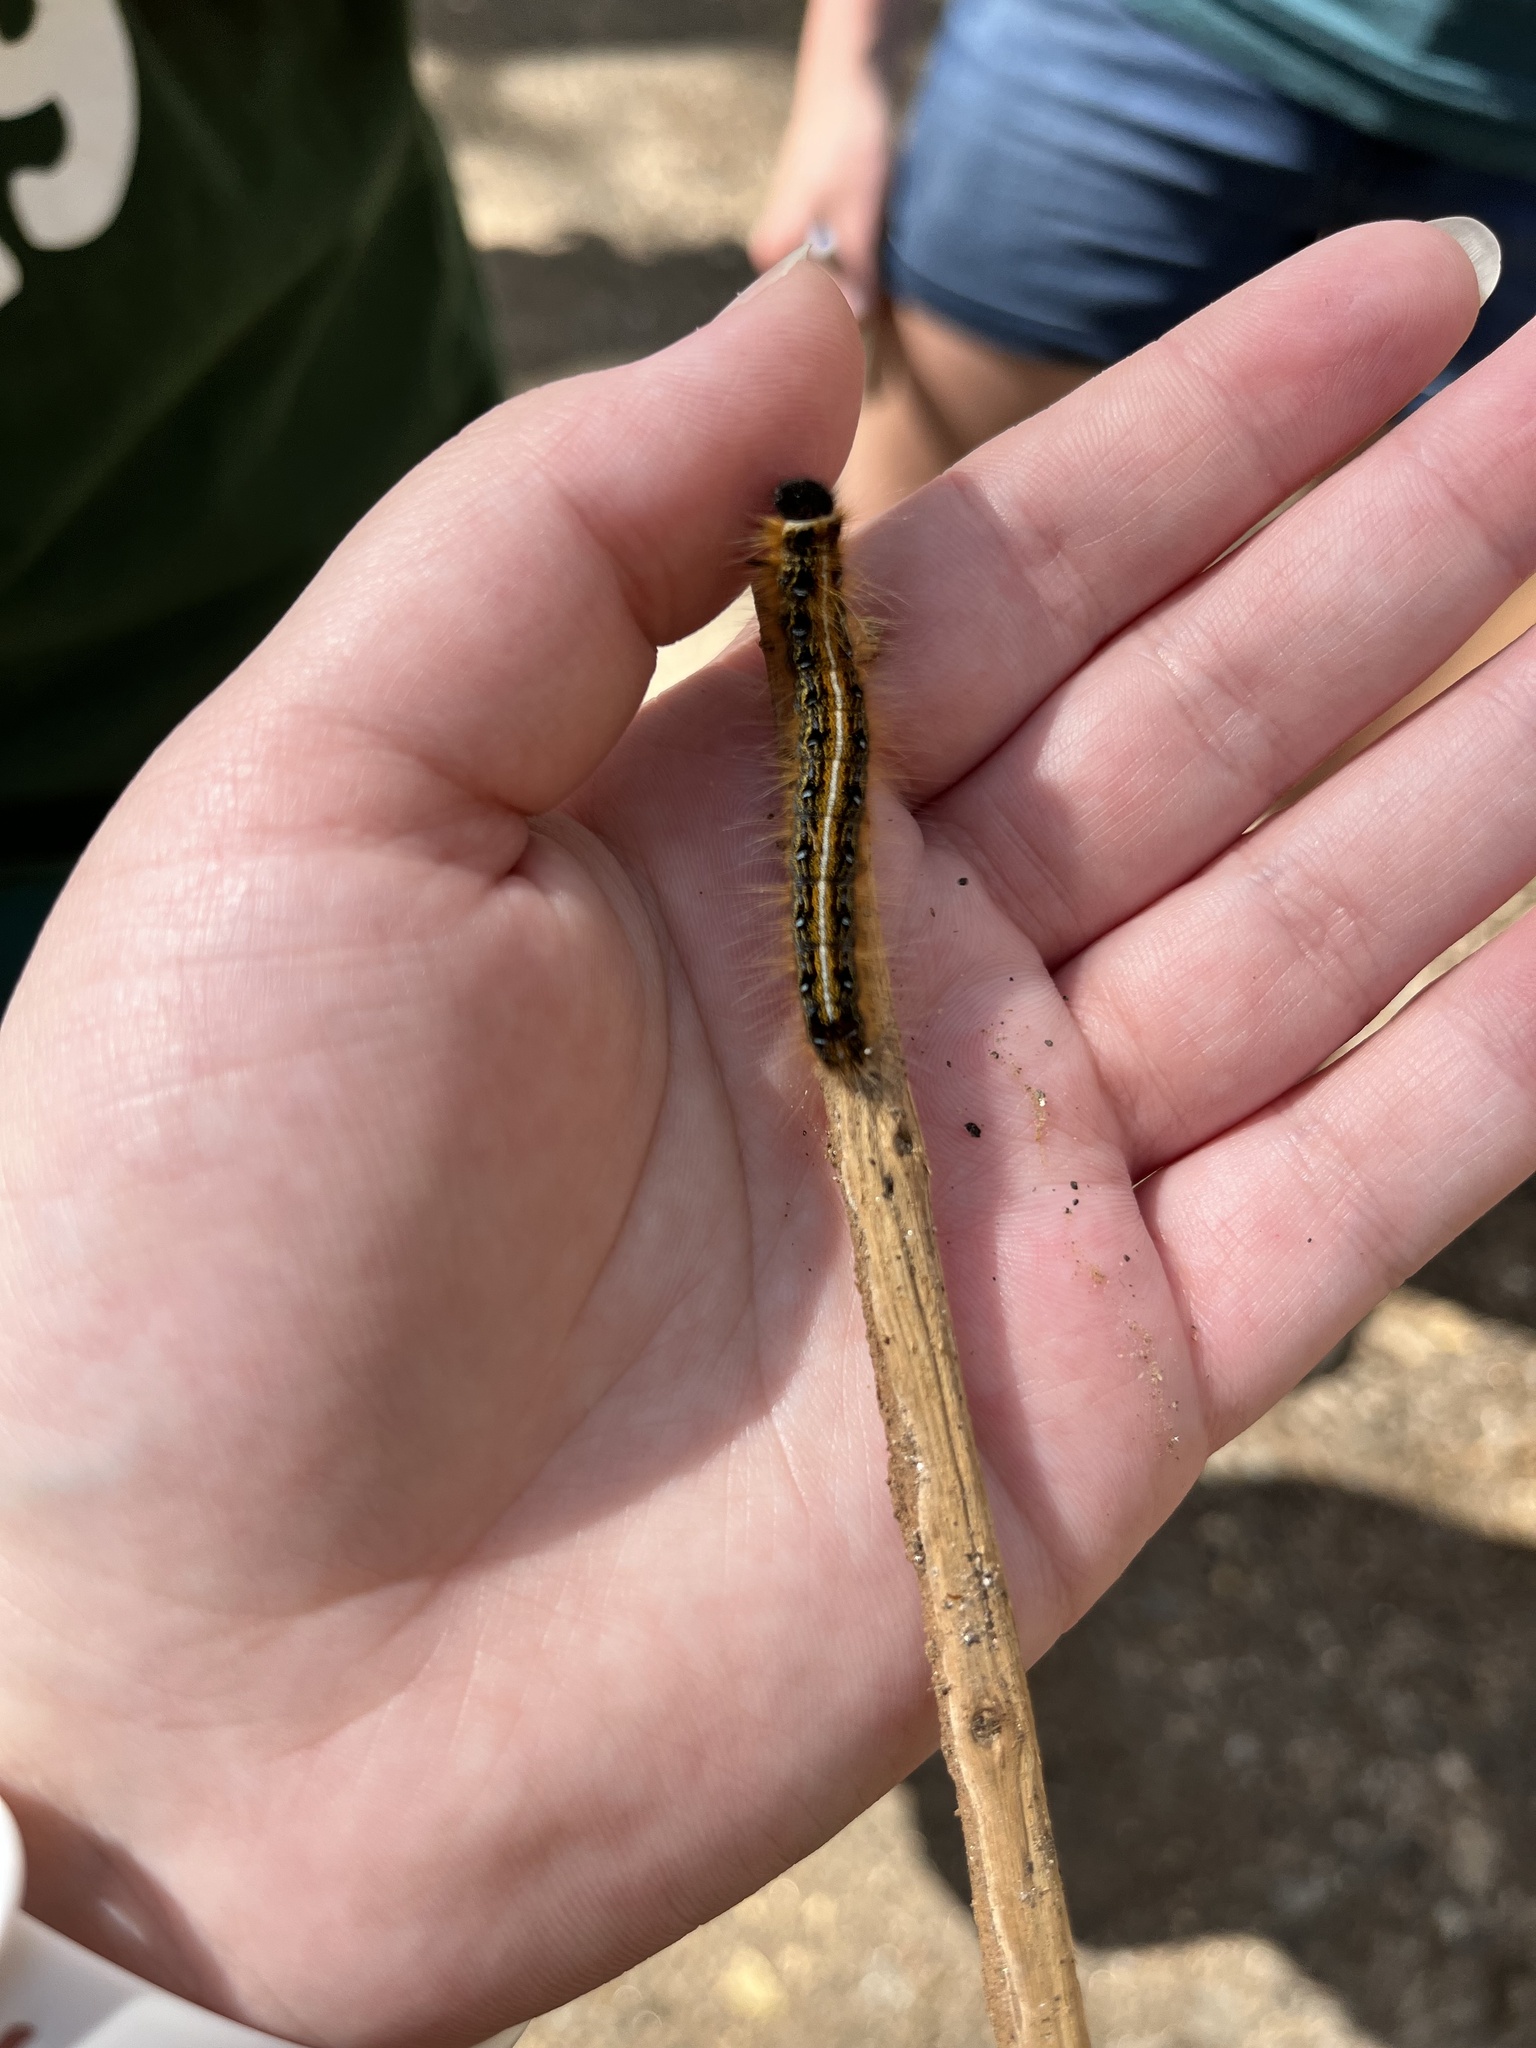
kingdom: Animalia
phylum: Arthropoda
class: Insecta
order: Lepidoptera
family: Lasiocampidae
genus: Malacosoma
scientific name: Malacosoma americana
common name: Eastern tent caterpillar moth
